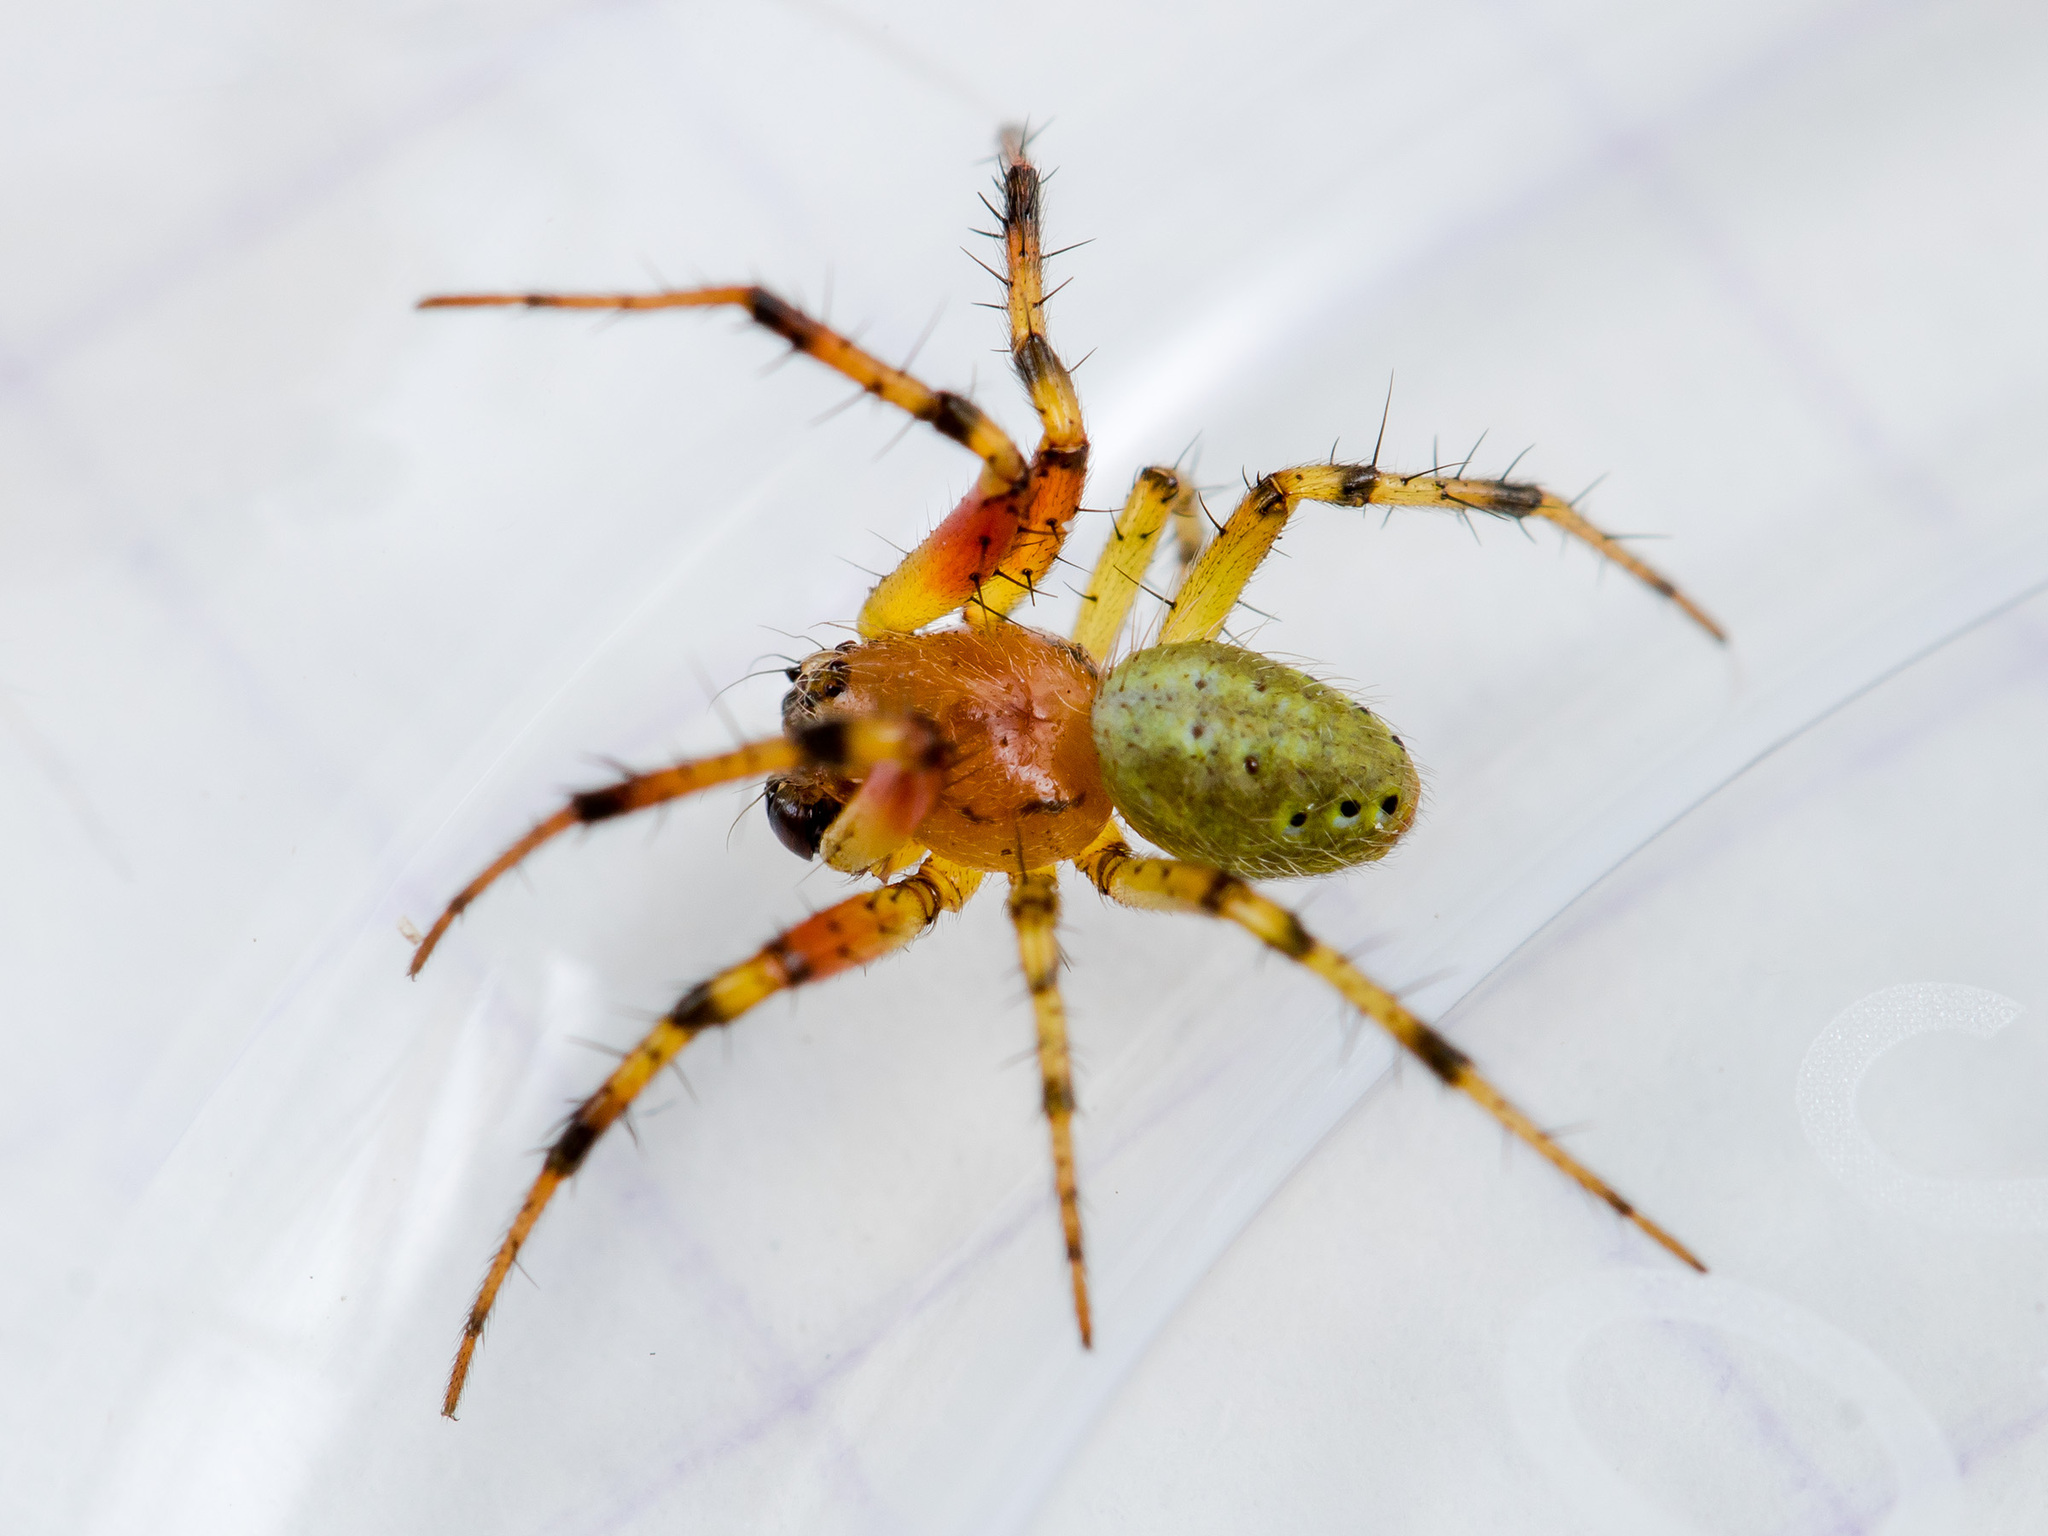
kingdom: Animalia
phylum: Arthropoda
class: Arachnida
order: Araneae
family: Araneidae
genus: Araniella
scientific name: Araniella villanii
